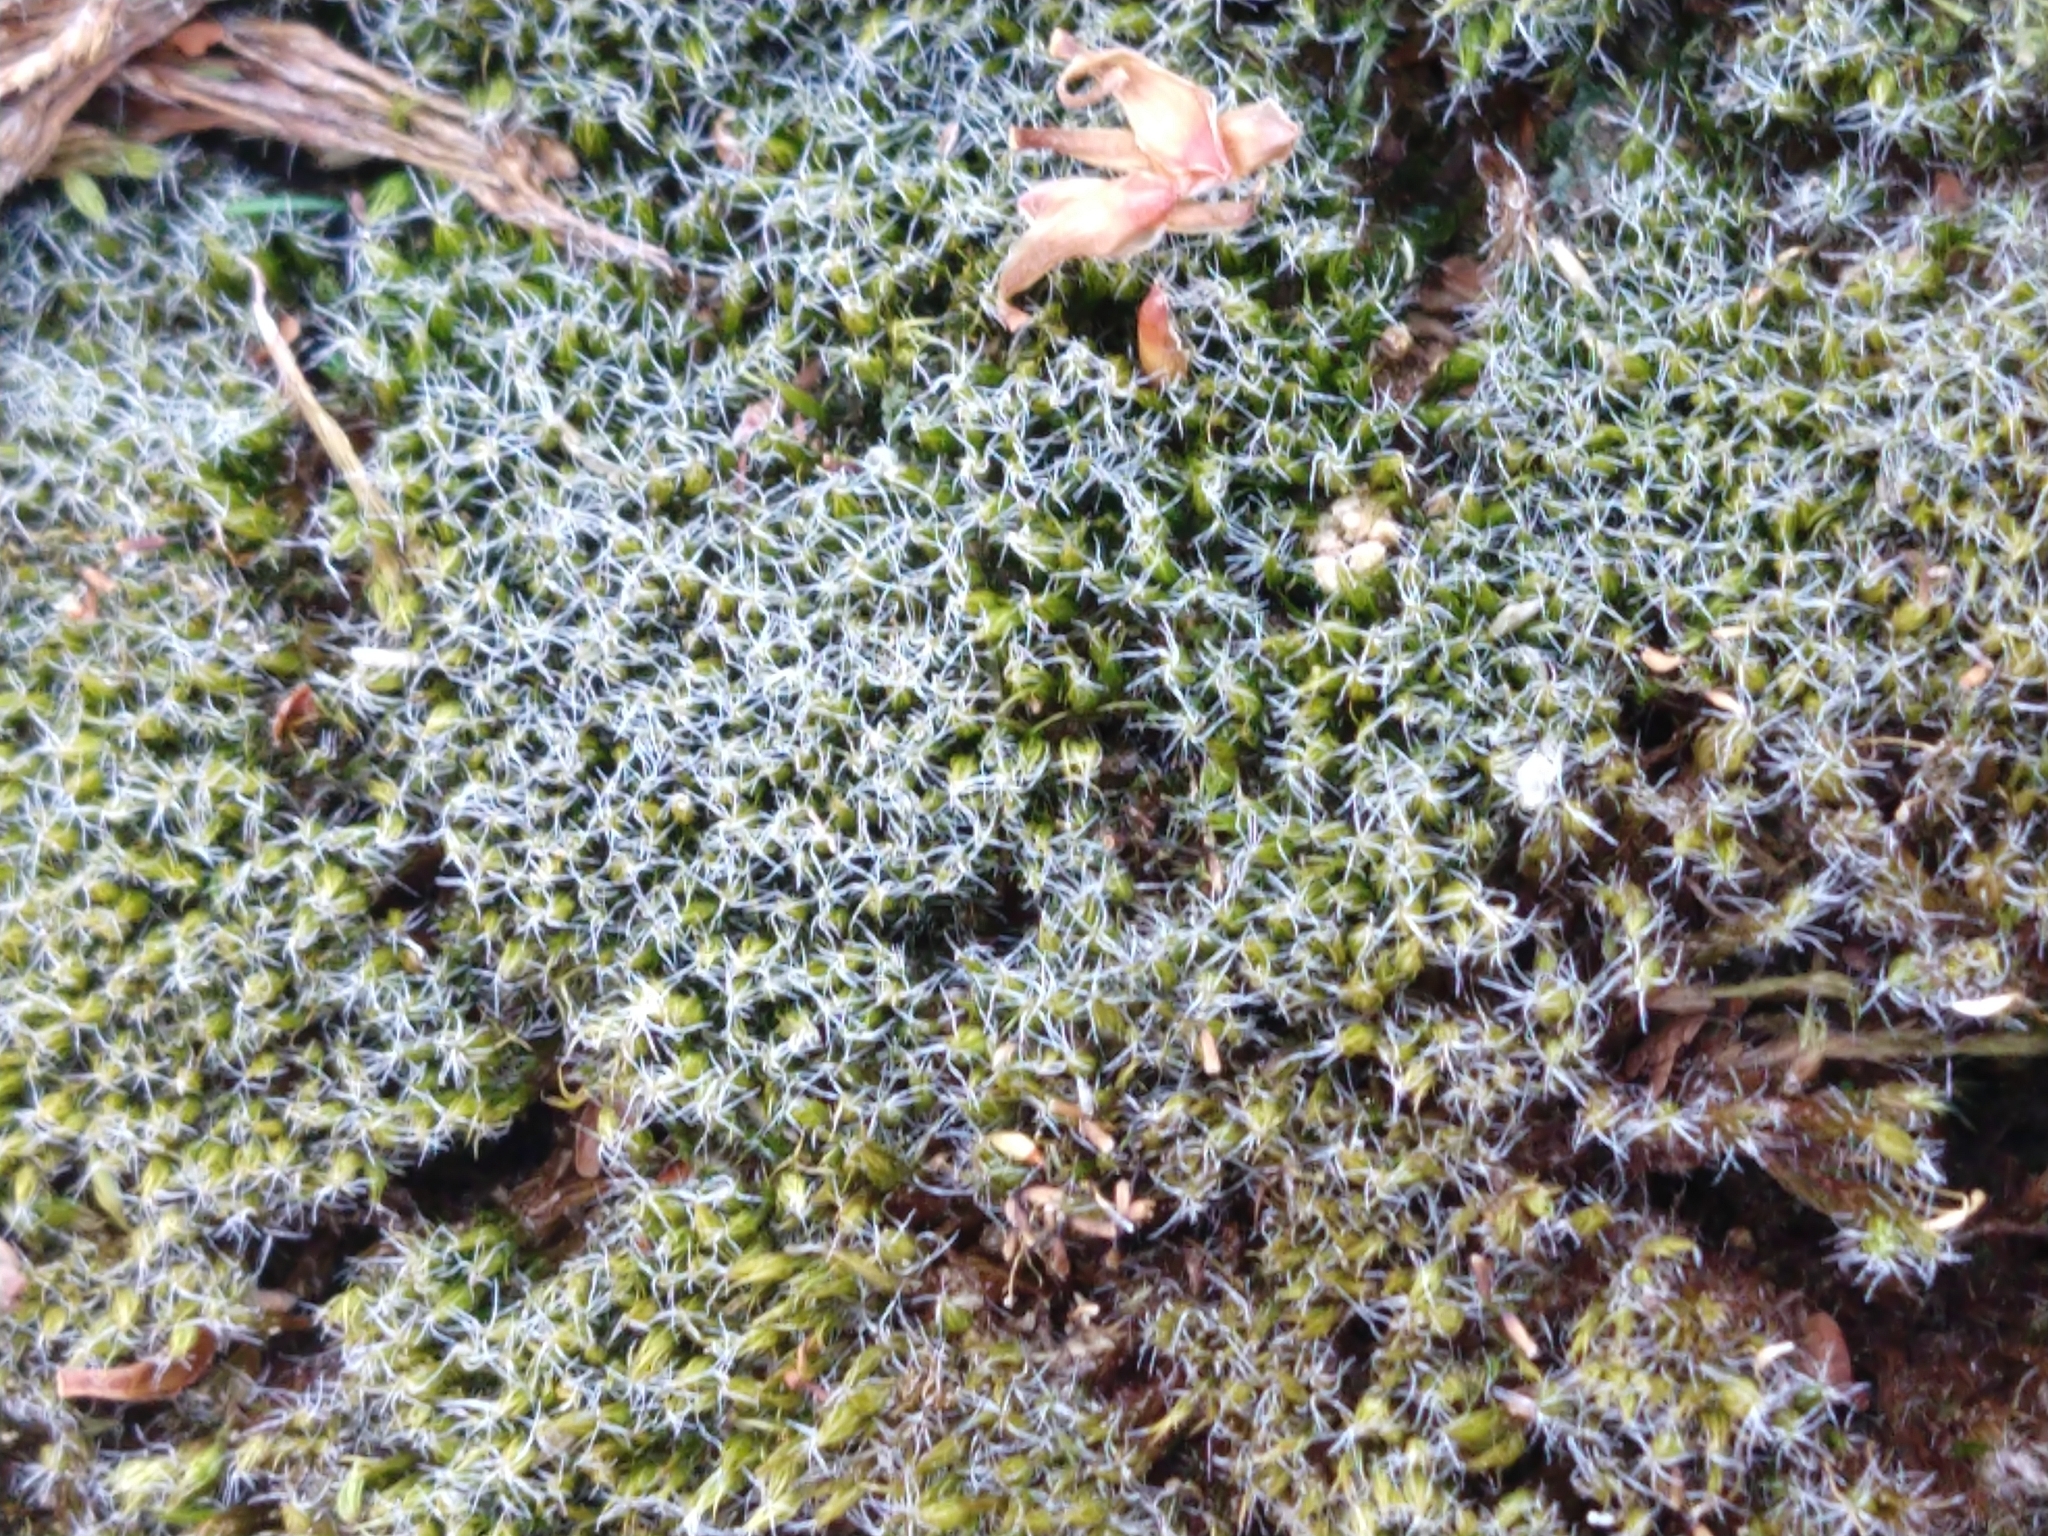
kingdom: Plantae
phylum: Bryophyta
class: Bryopsida
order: Dicranales
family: Leucobryaceae
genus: Campylopus
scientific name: Campylopus introflexus
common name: Heath star moss
